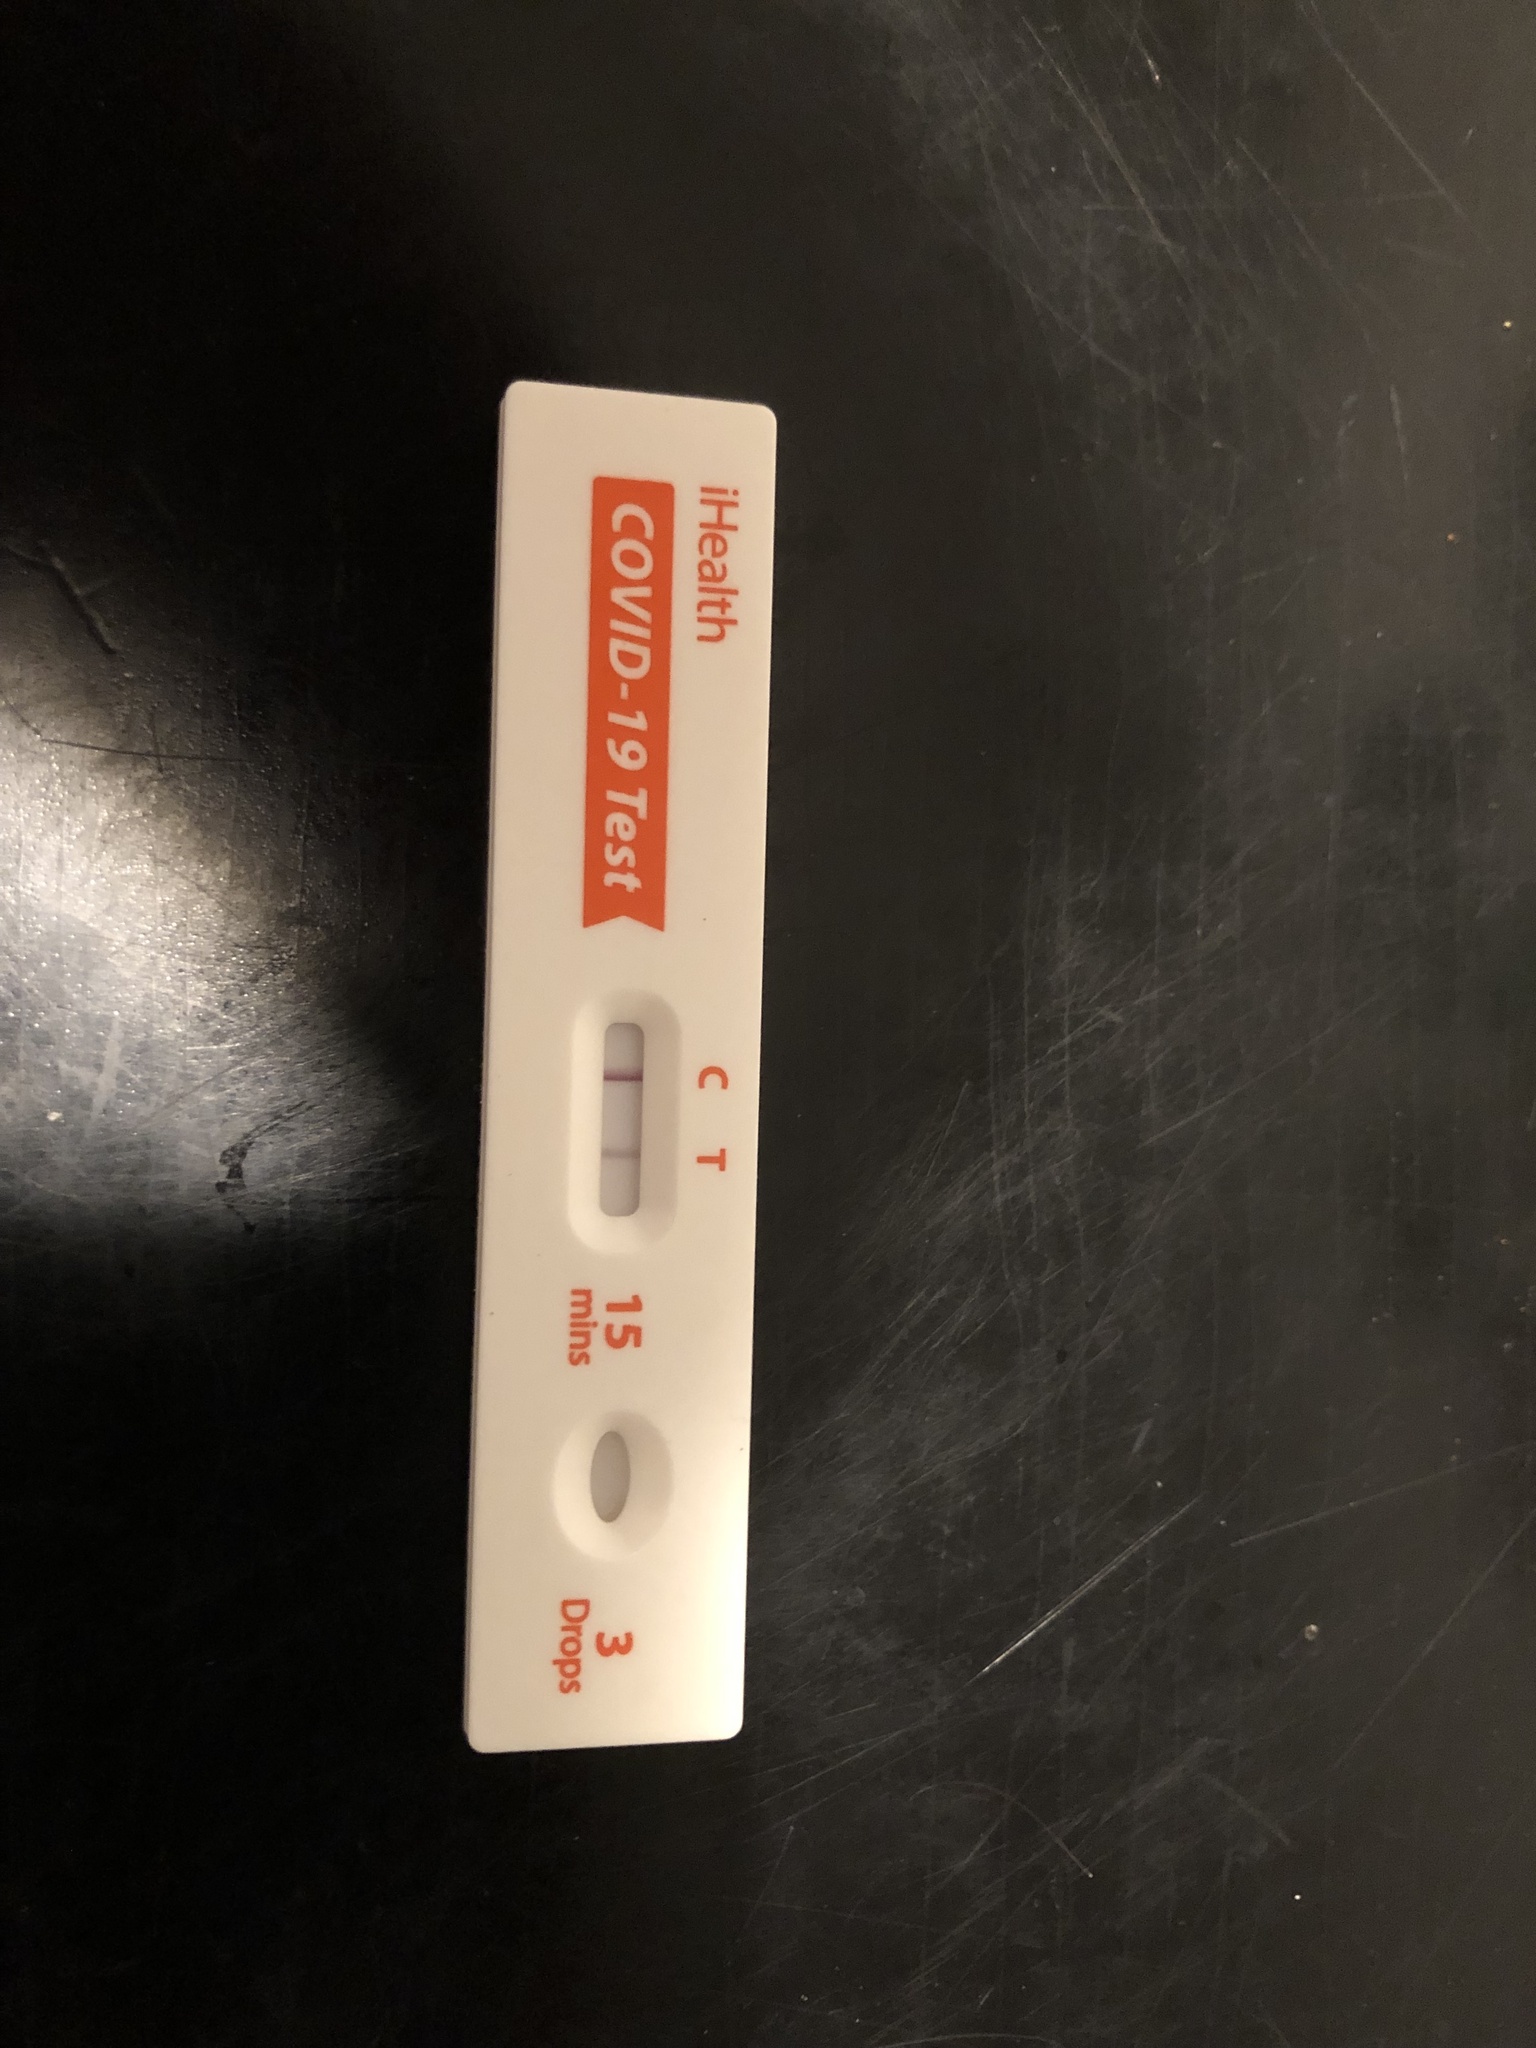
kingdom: Viruses
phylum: Pisuviricota
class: Pisoniviricetes
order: Nidovirales
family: Coronaviridae
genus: Betacoronavirus
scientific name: Betacoronavirus
